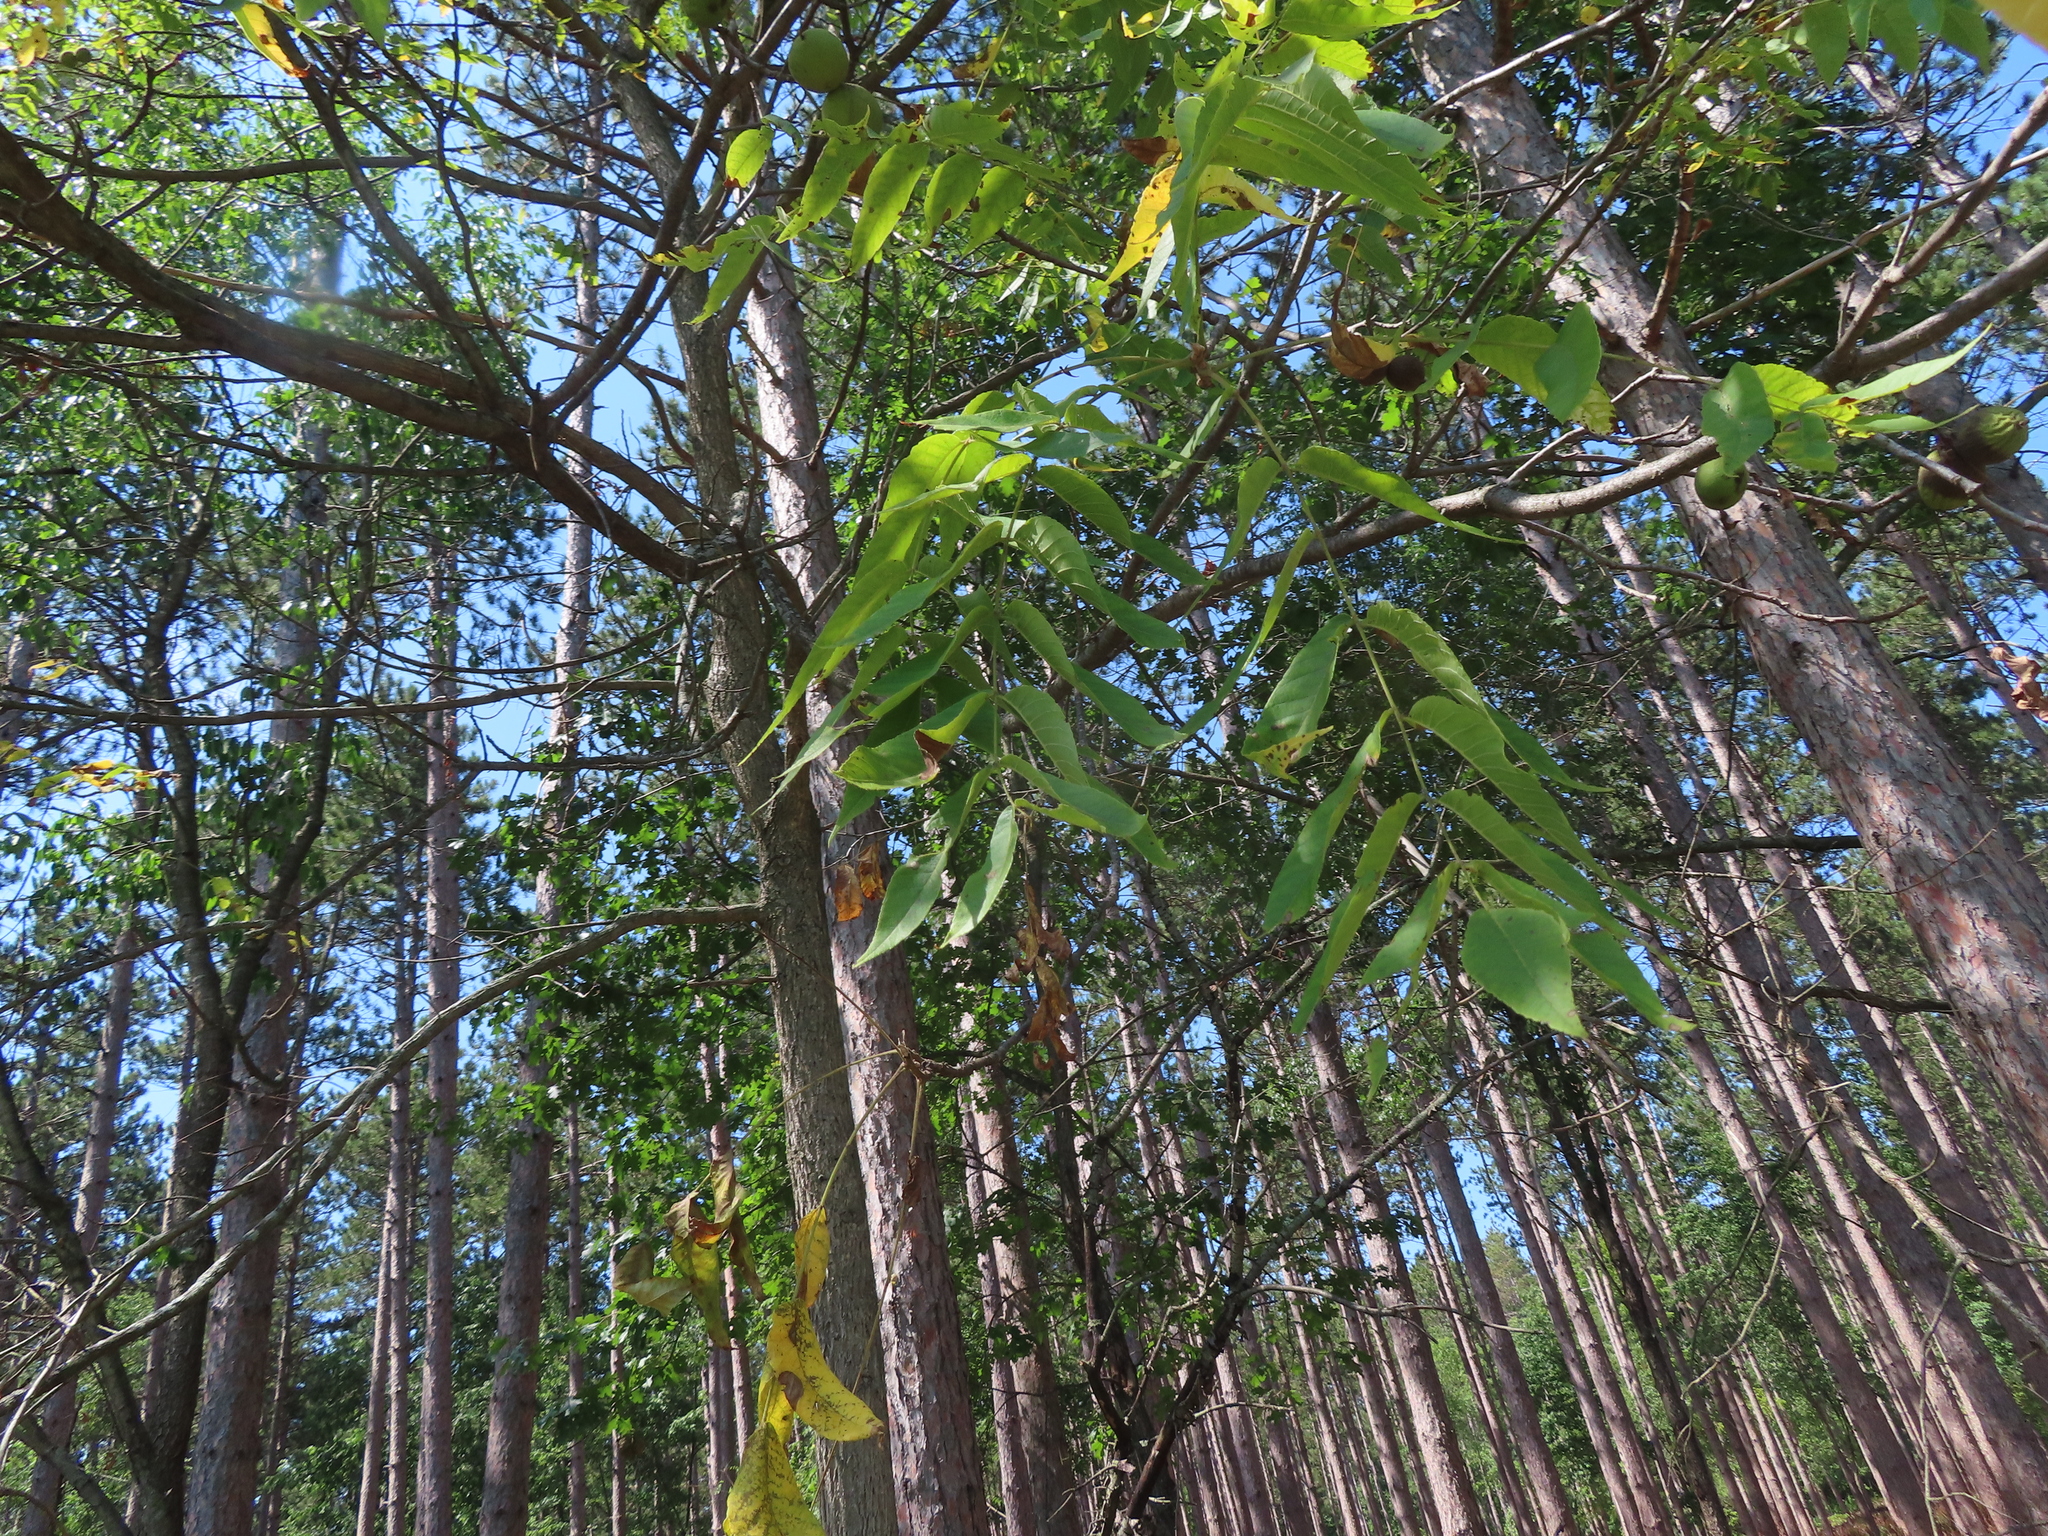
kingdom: Plantae
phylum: Tracheophyta
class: Magnoliopsida
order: Fagales
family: Juglandaceae
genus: Juglans
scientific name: Juglans nigra
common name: Black walnut
